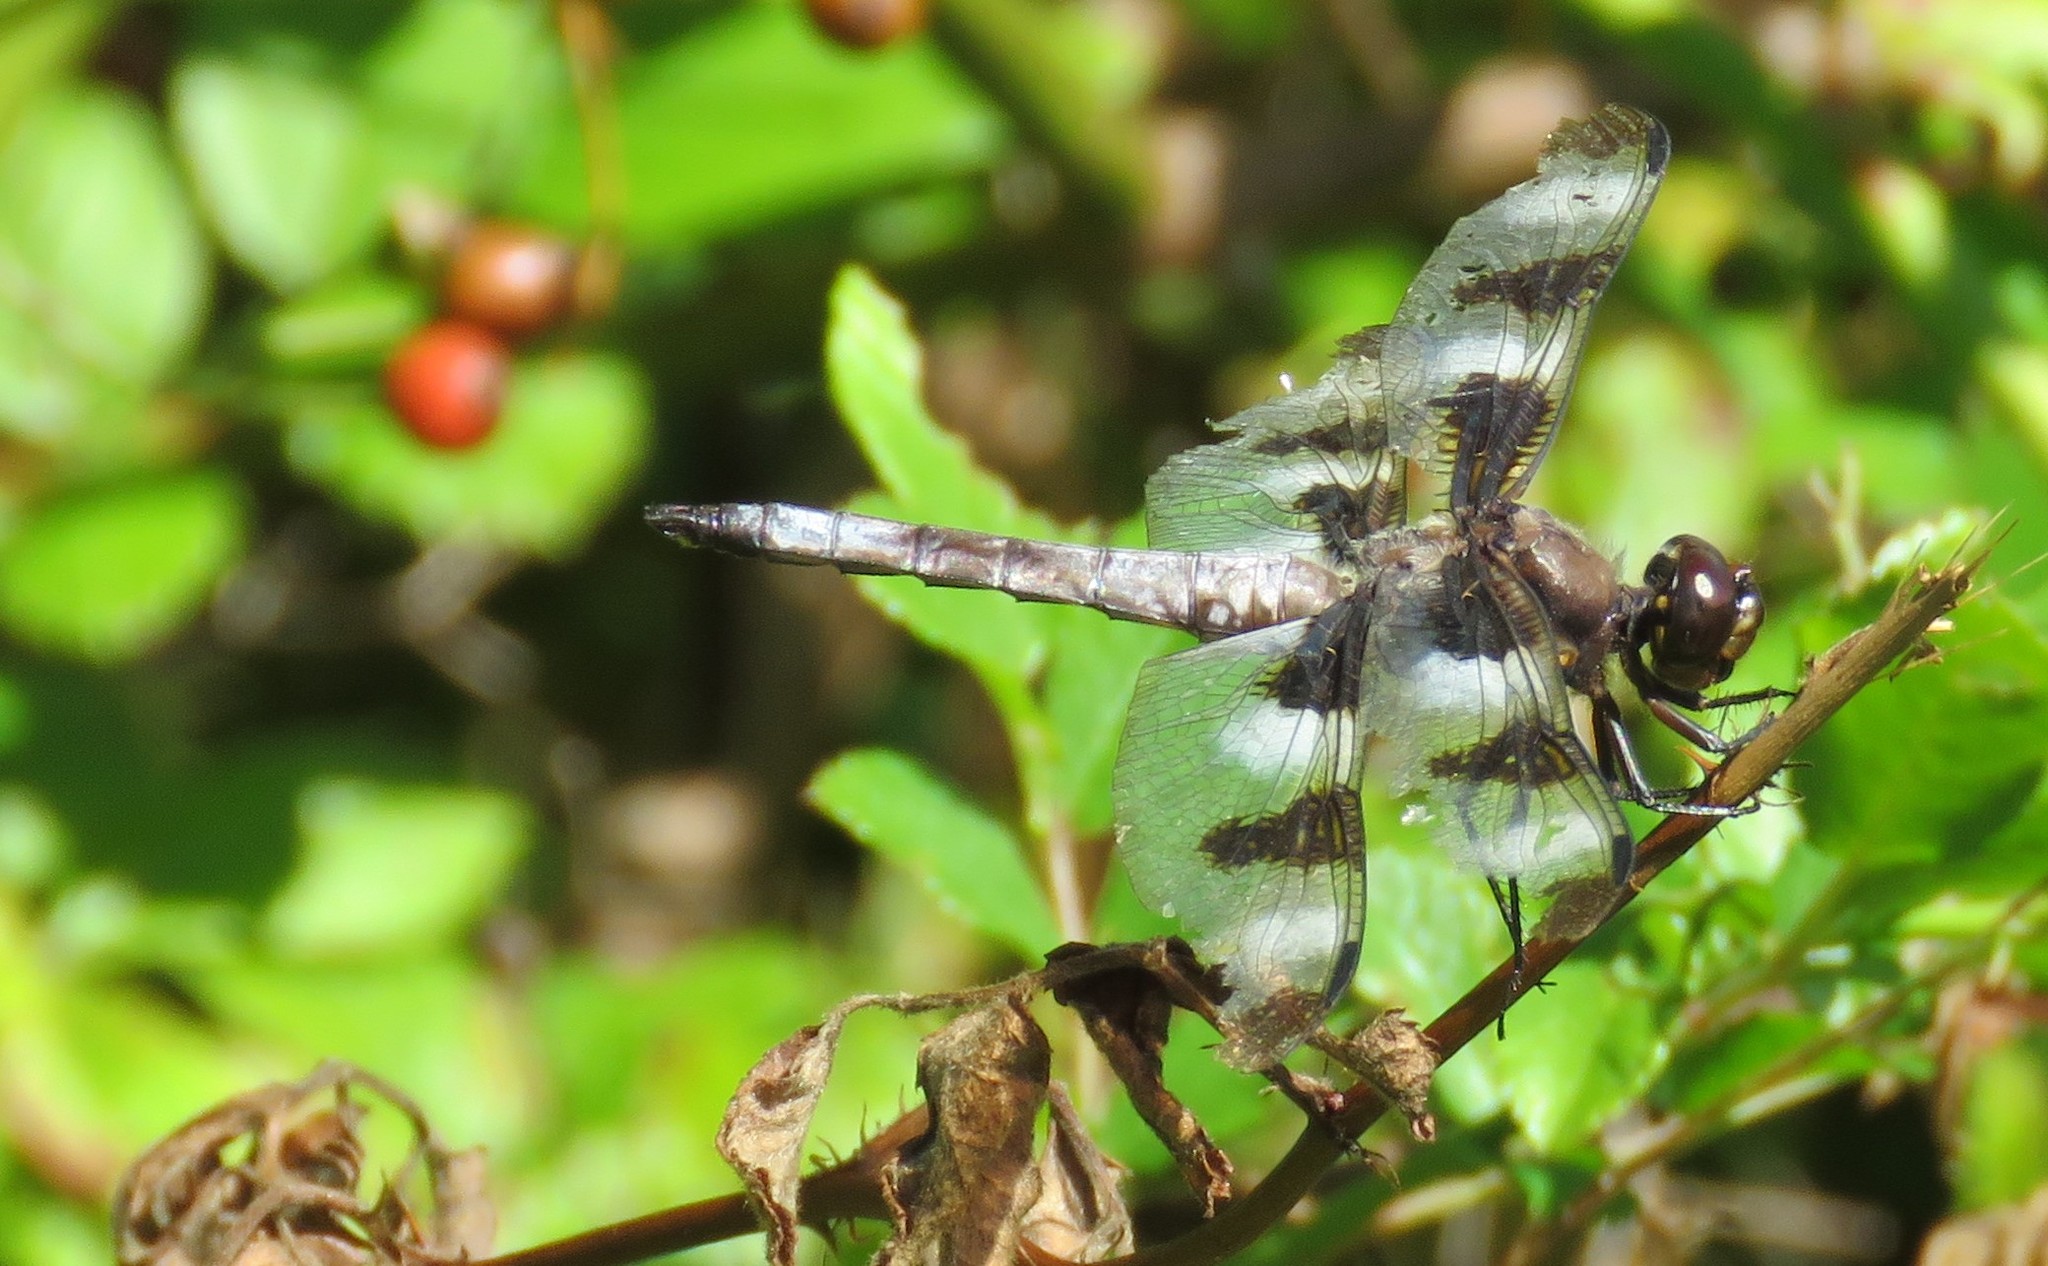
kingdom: Animalia
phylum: Arthropoda
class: Insecta
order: Odonata
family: Libellulidae
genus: Libellula
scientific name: Libellula pulchella
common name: Twelve-spotted skimmer
